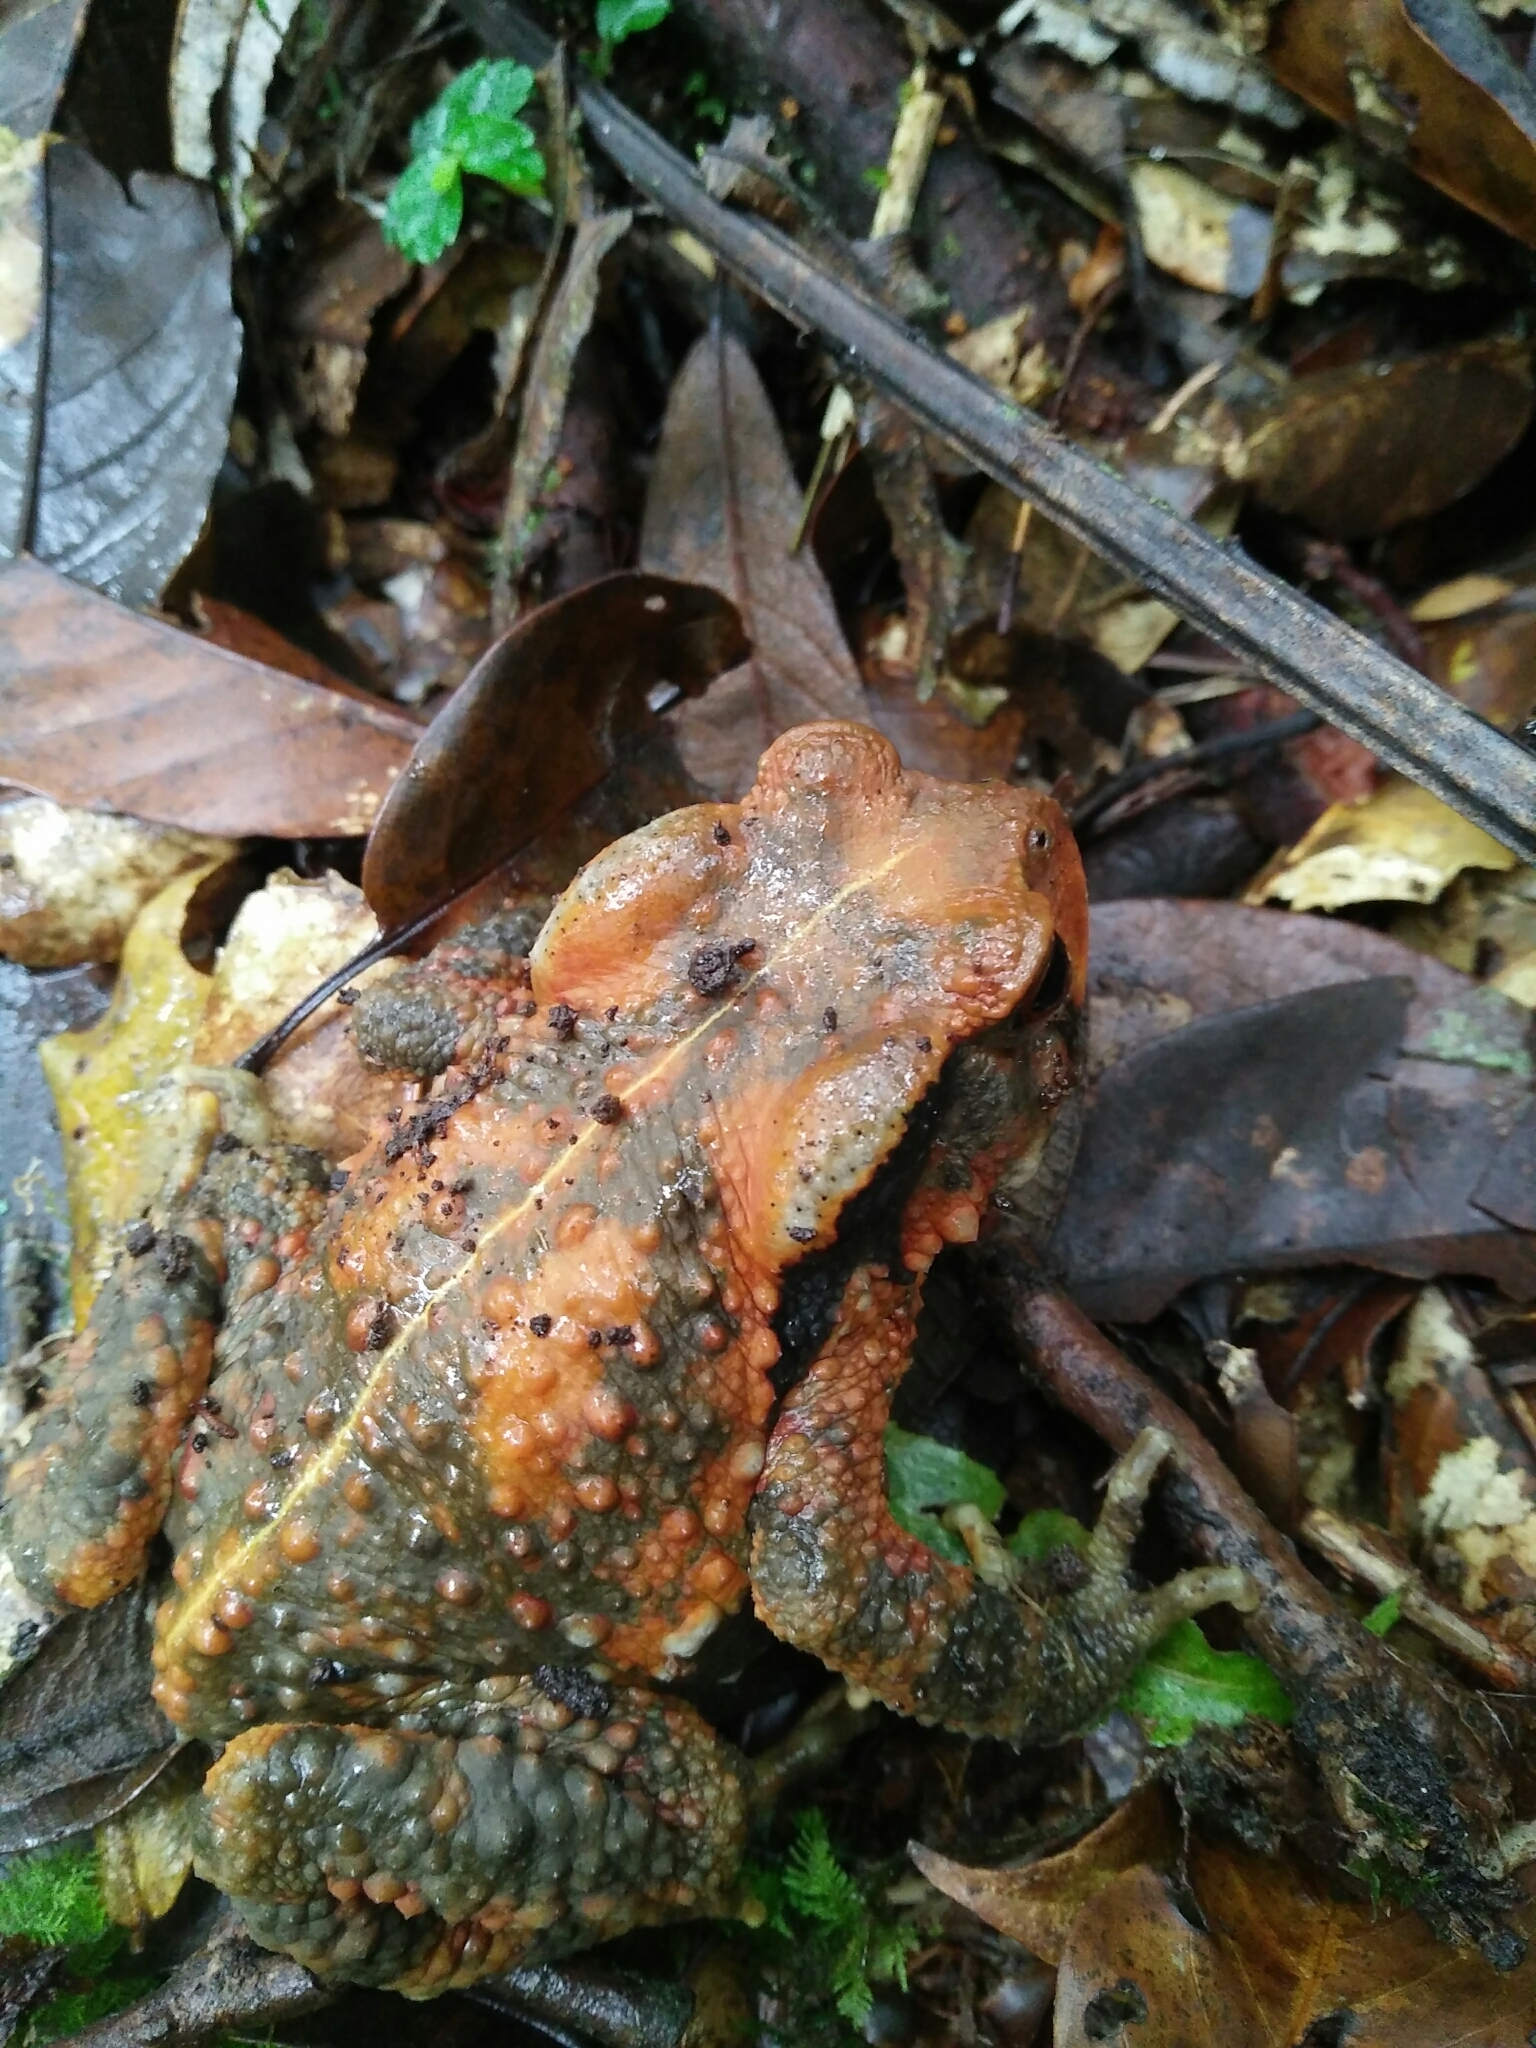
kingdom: Animalia
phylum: Chordata
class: Amphibia
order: Anura
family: Bufonidae
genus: Bufo
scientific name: Bufo bankorensis
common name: Bankor toad
